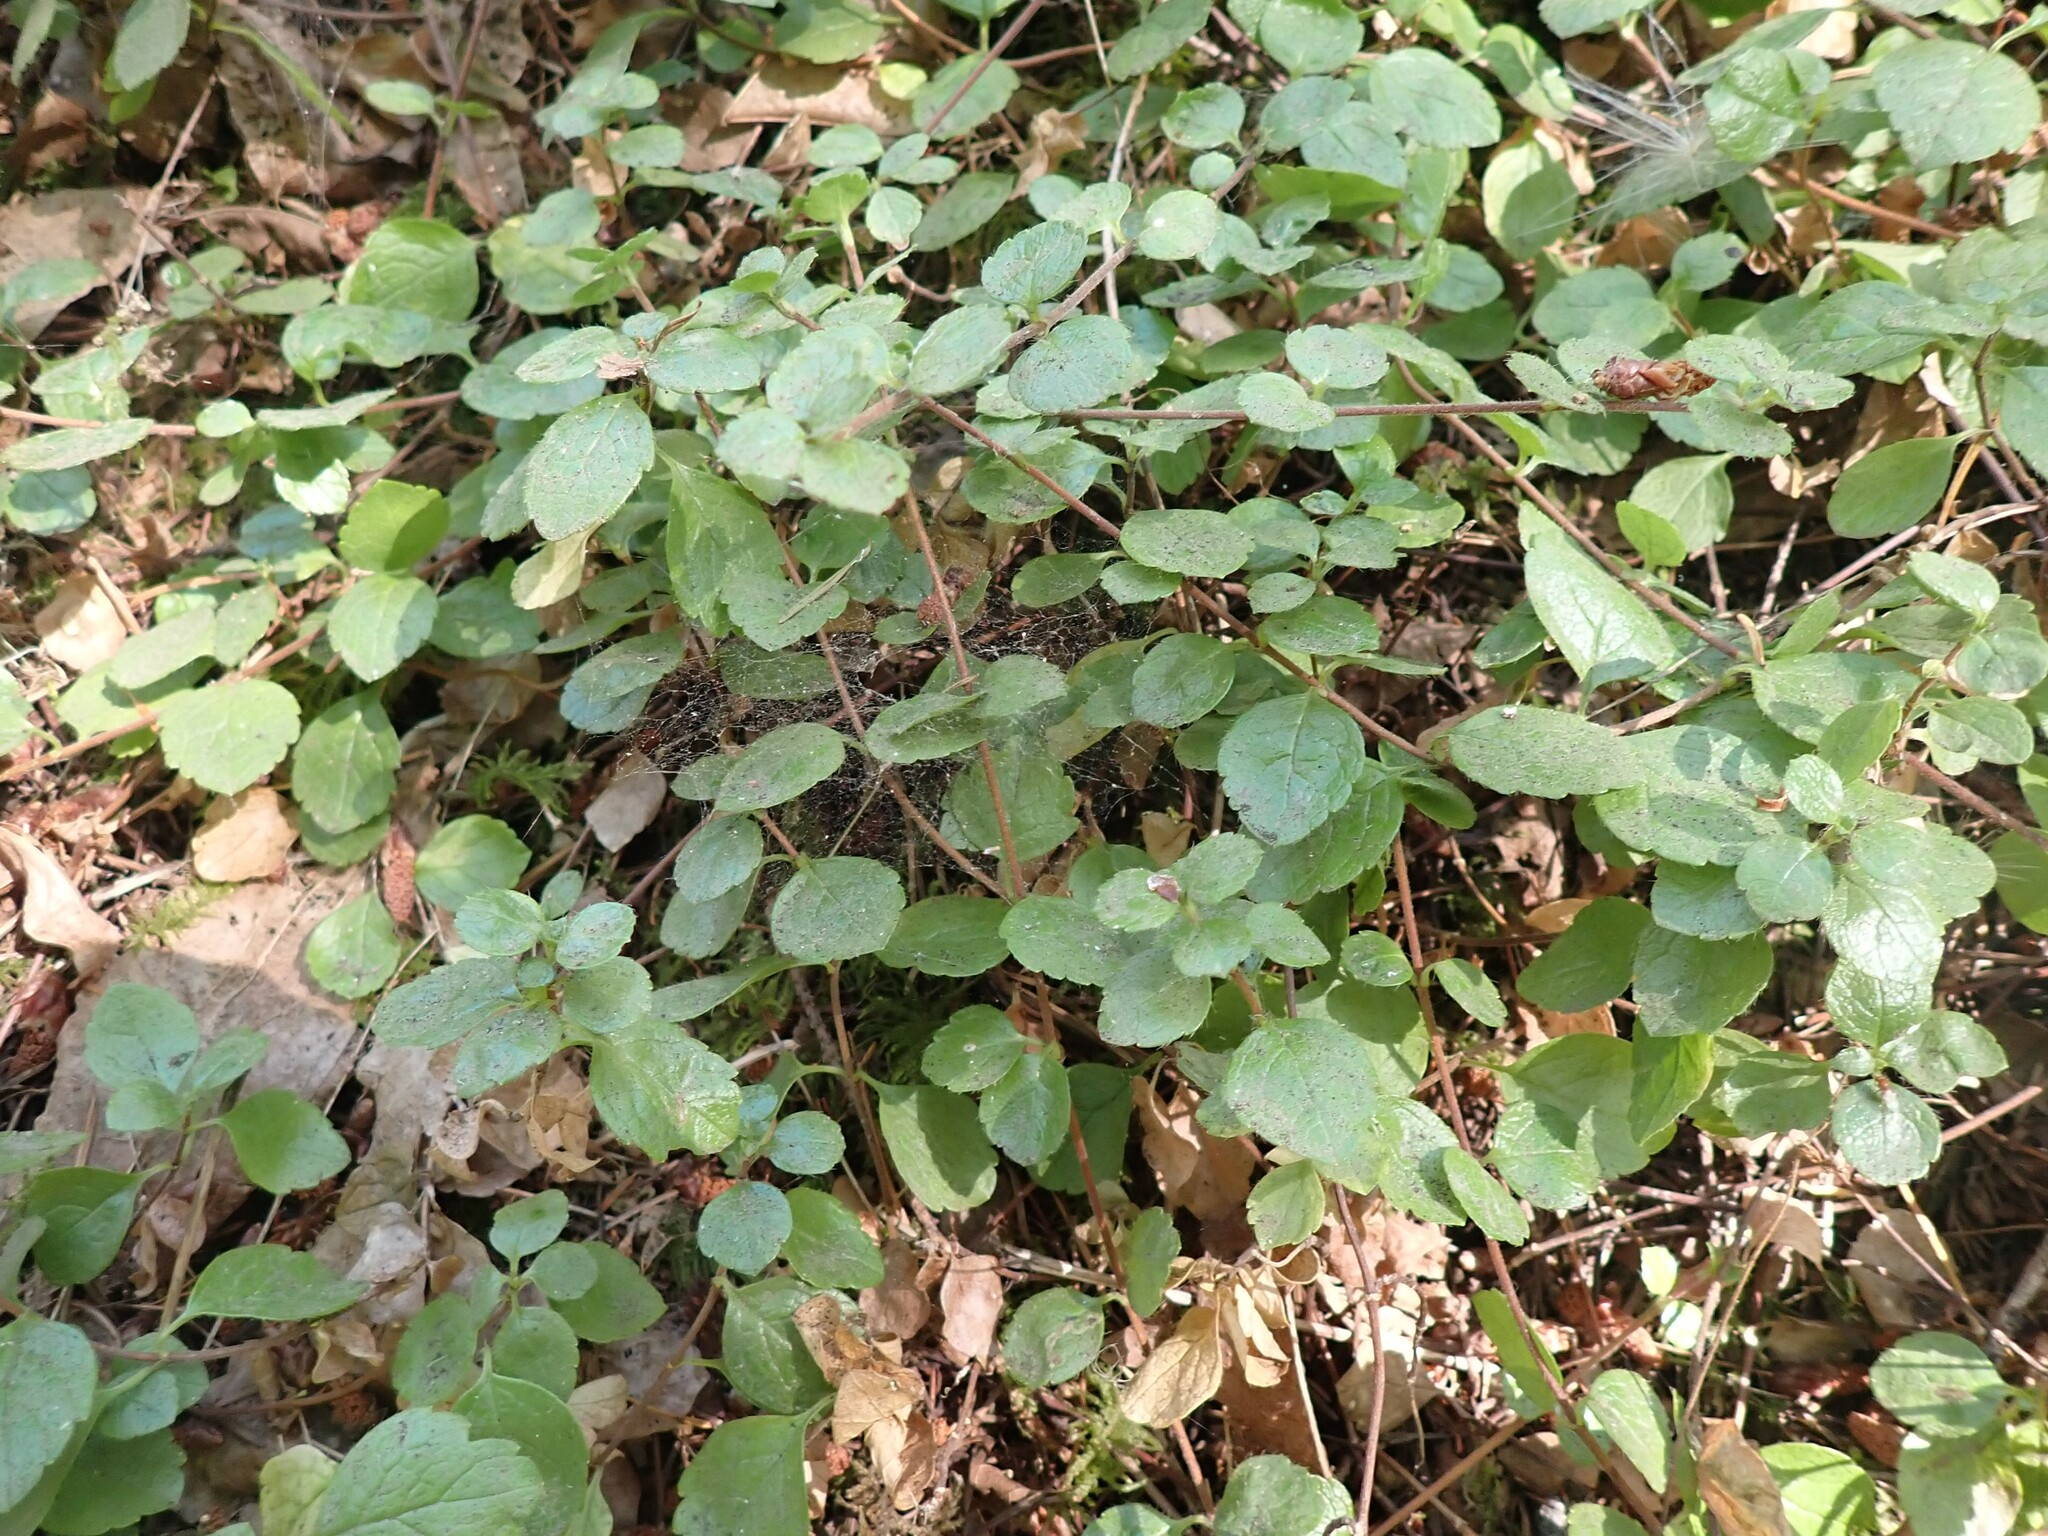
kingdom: Plantae
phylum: Tracheophyta
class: Magnoliopsida
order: Dipsacales
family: Caprifoliaceae
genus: Linnaea
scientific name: Linnaea borealis
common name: Twinflower
